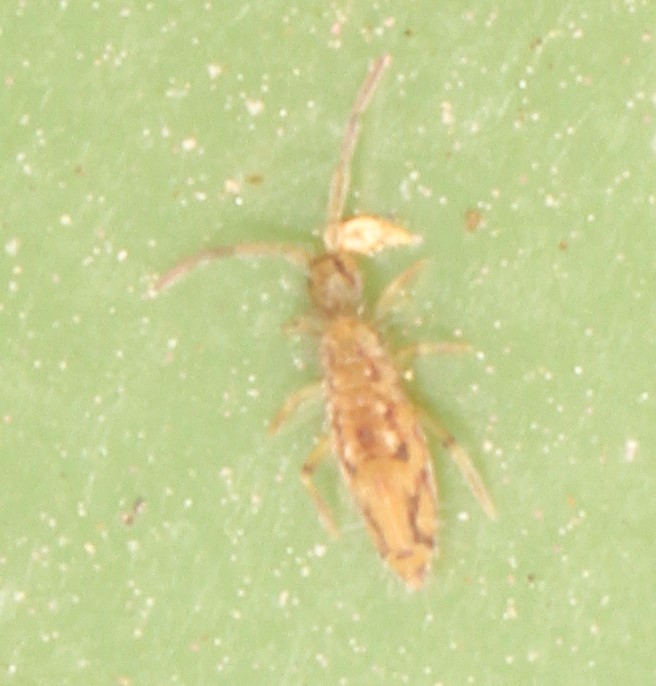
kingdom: Animalia
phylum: Arthropoda
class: Collembola
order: Entomobryomorpha
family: Entomobryidae
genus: Entomobrya
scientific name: Entomobrya intermedia
